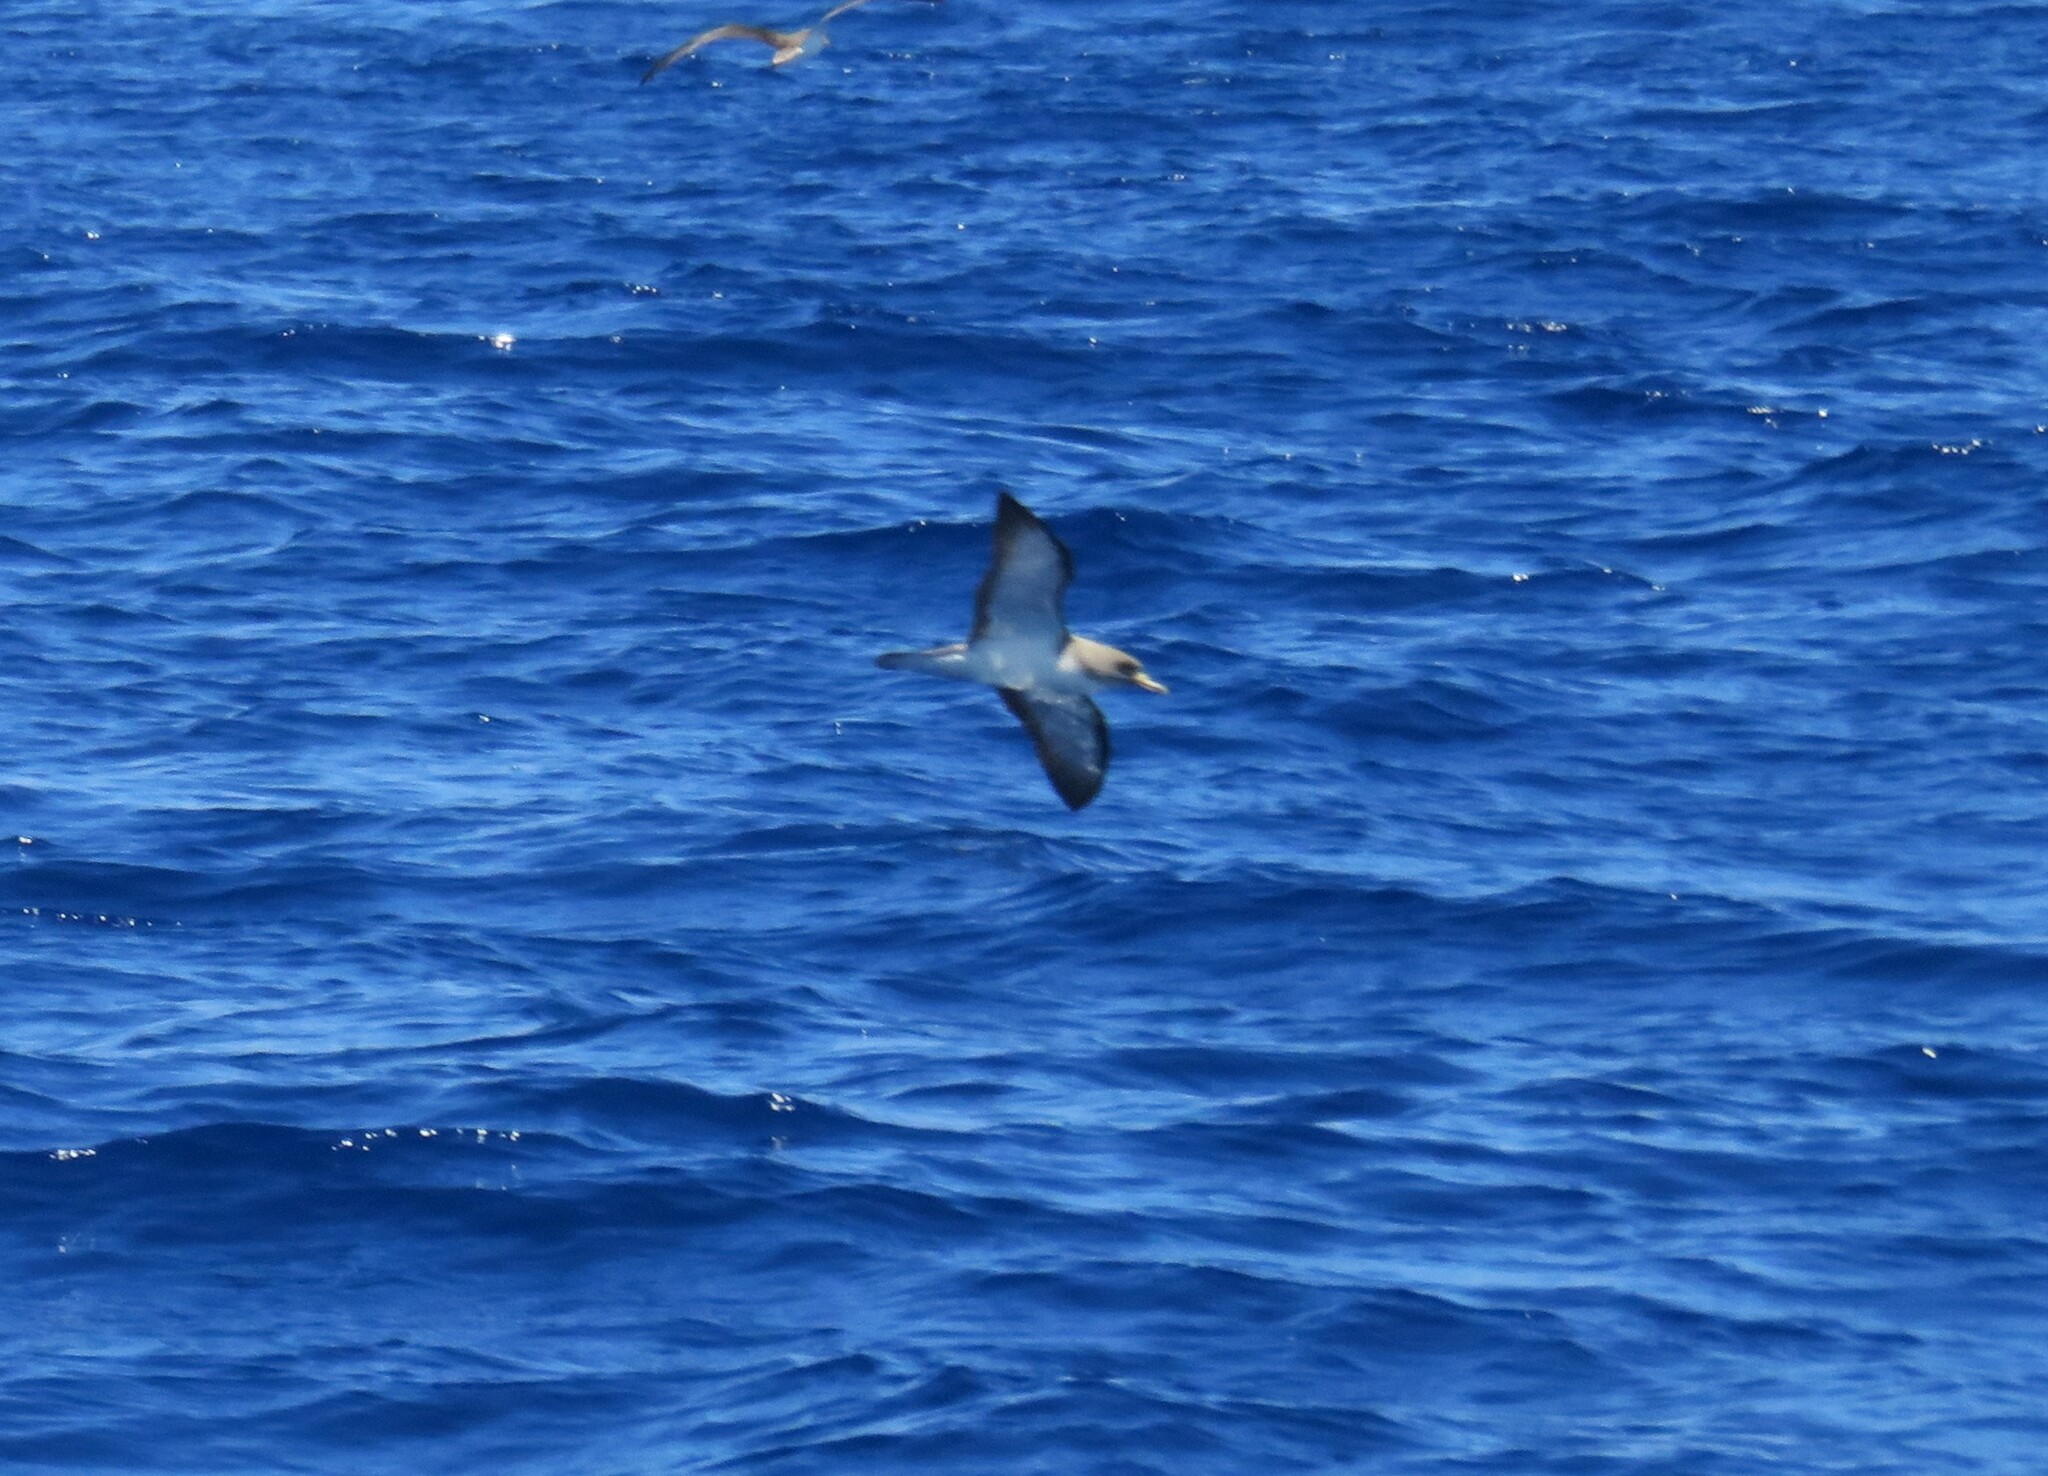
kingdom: Animalia
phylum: Chordata
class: Aves
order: Procellariiformes
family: Procellariidae
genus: Calonectris
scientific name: Calonectris diomedea
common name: Cory's shearwater
